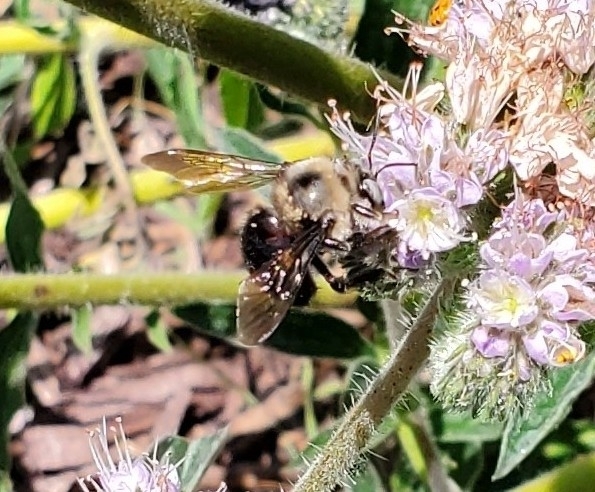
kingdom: Animalia
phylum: Arthropoda
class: Insecta
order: Hymenoptera
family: Apidae
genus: Xylocopa
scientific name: Xylocopa tabaniformis
